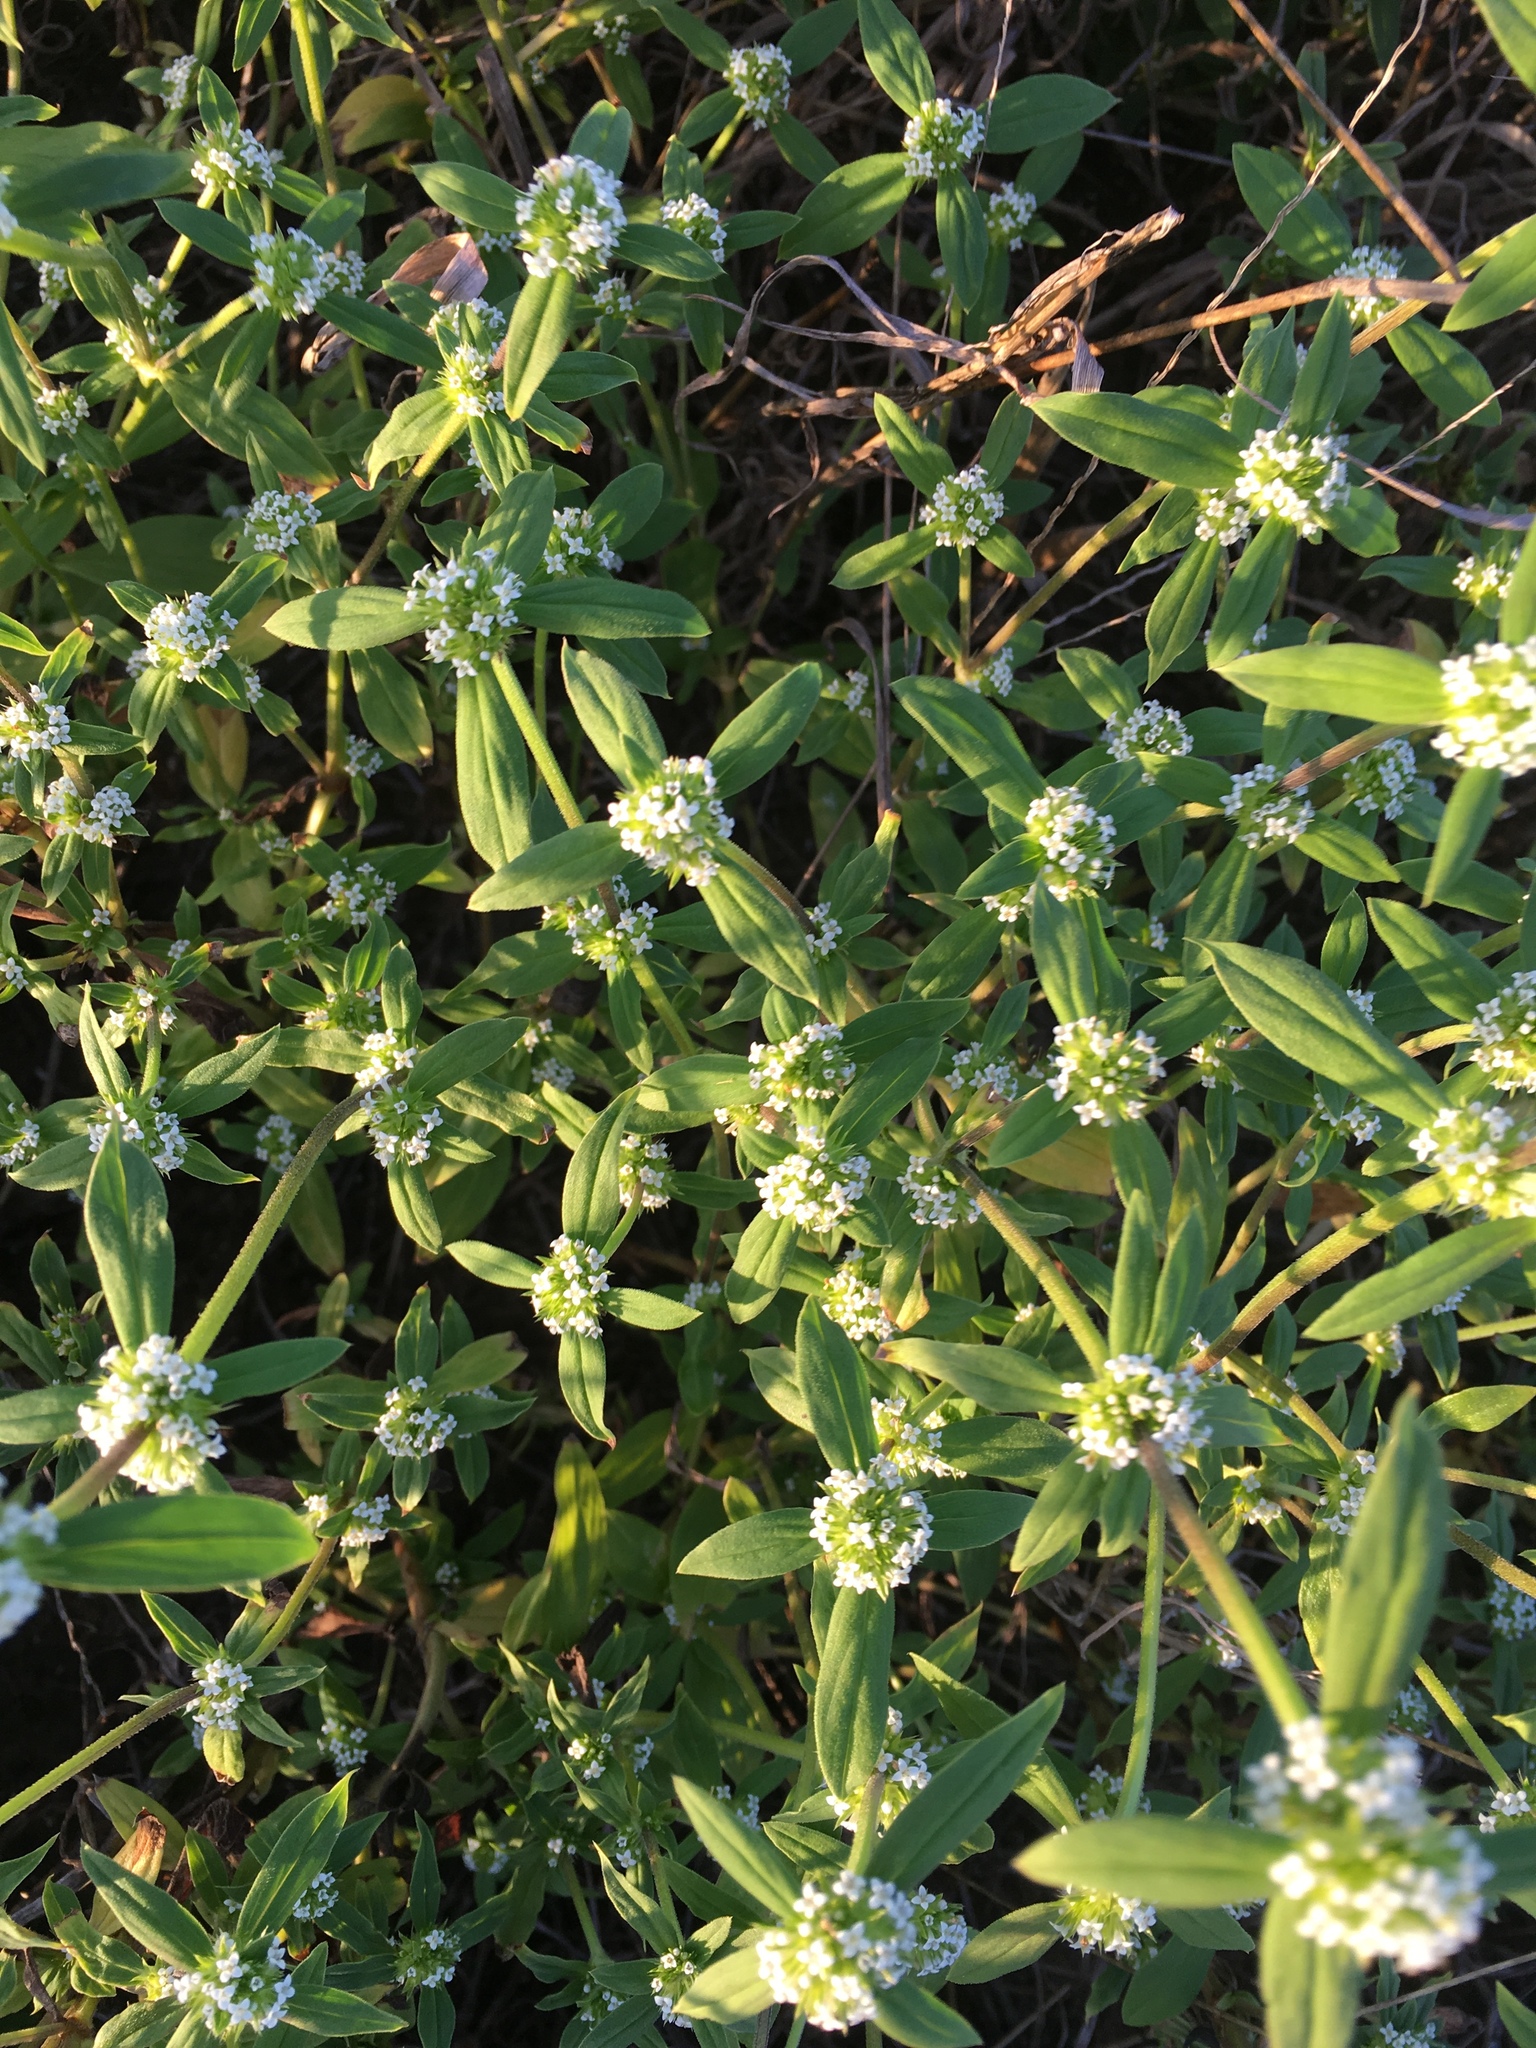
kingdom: Plantae
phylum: Tracheophyta
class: Magnoliopsida
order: Gentianales
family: Rubiaceae
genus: Spermacoce
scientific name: Spermacoce glabra
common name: Smooth buttonweed
